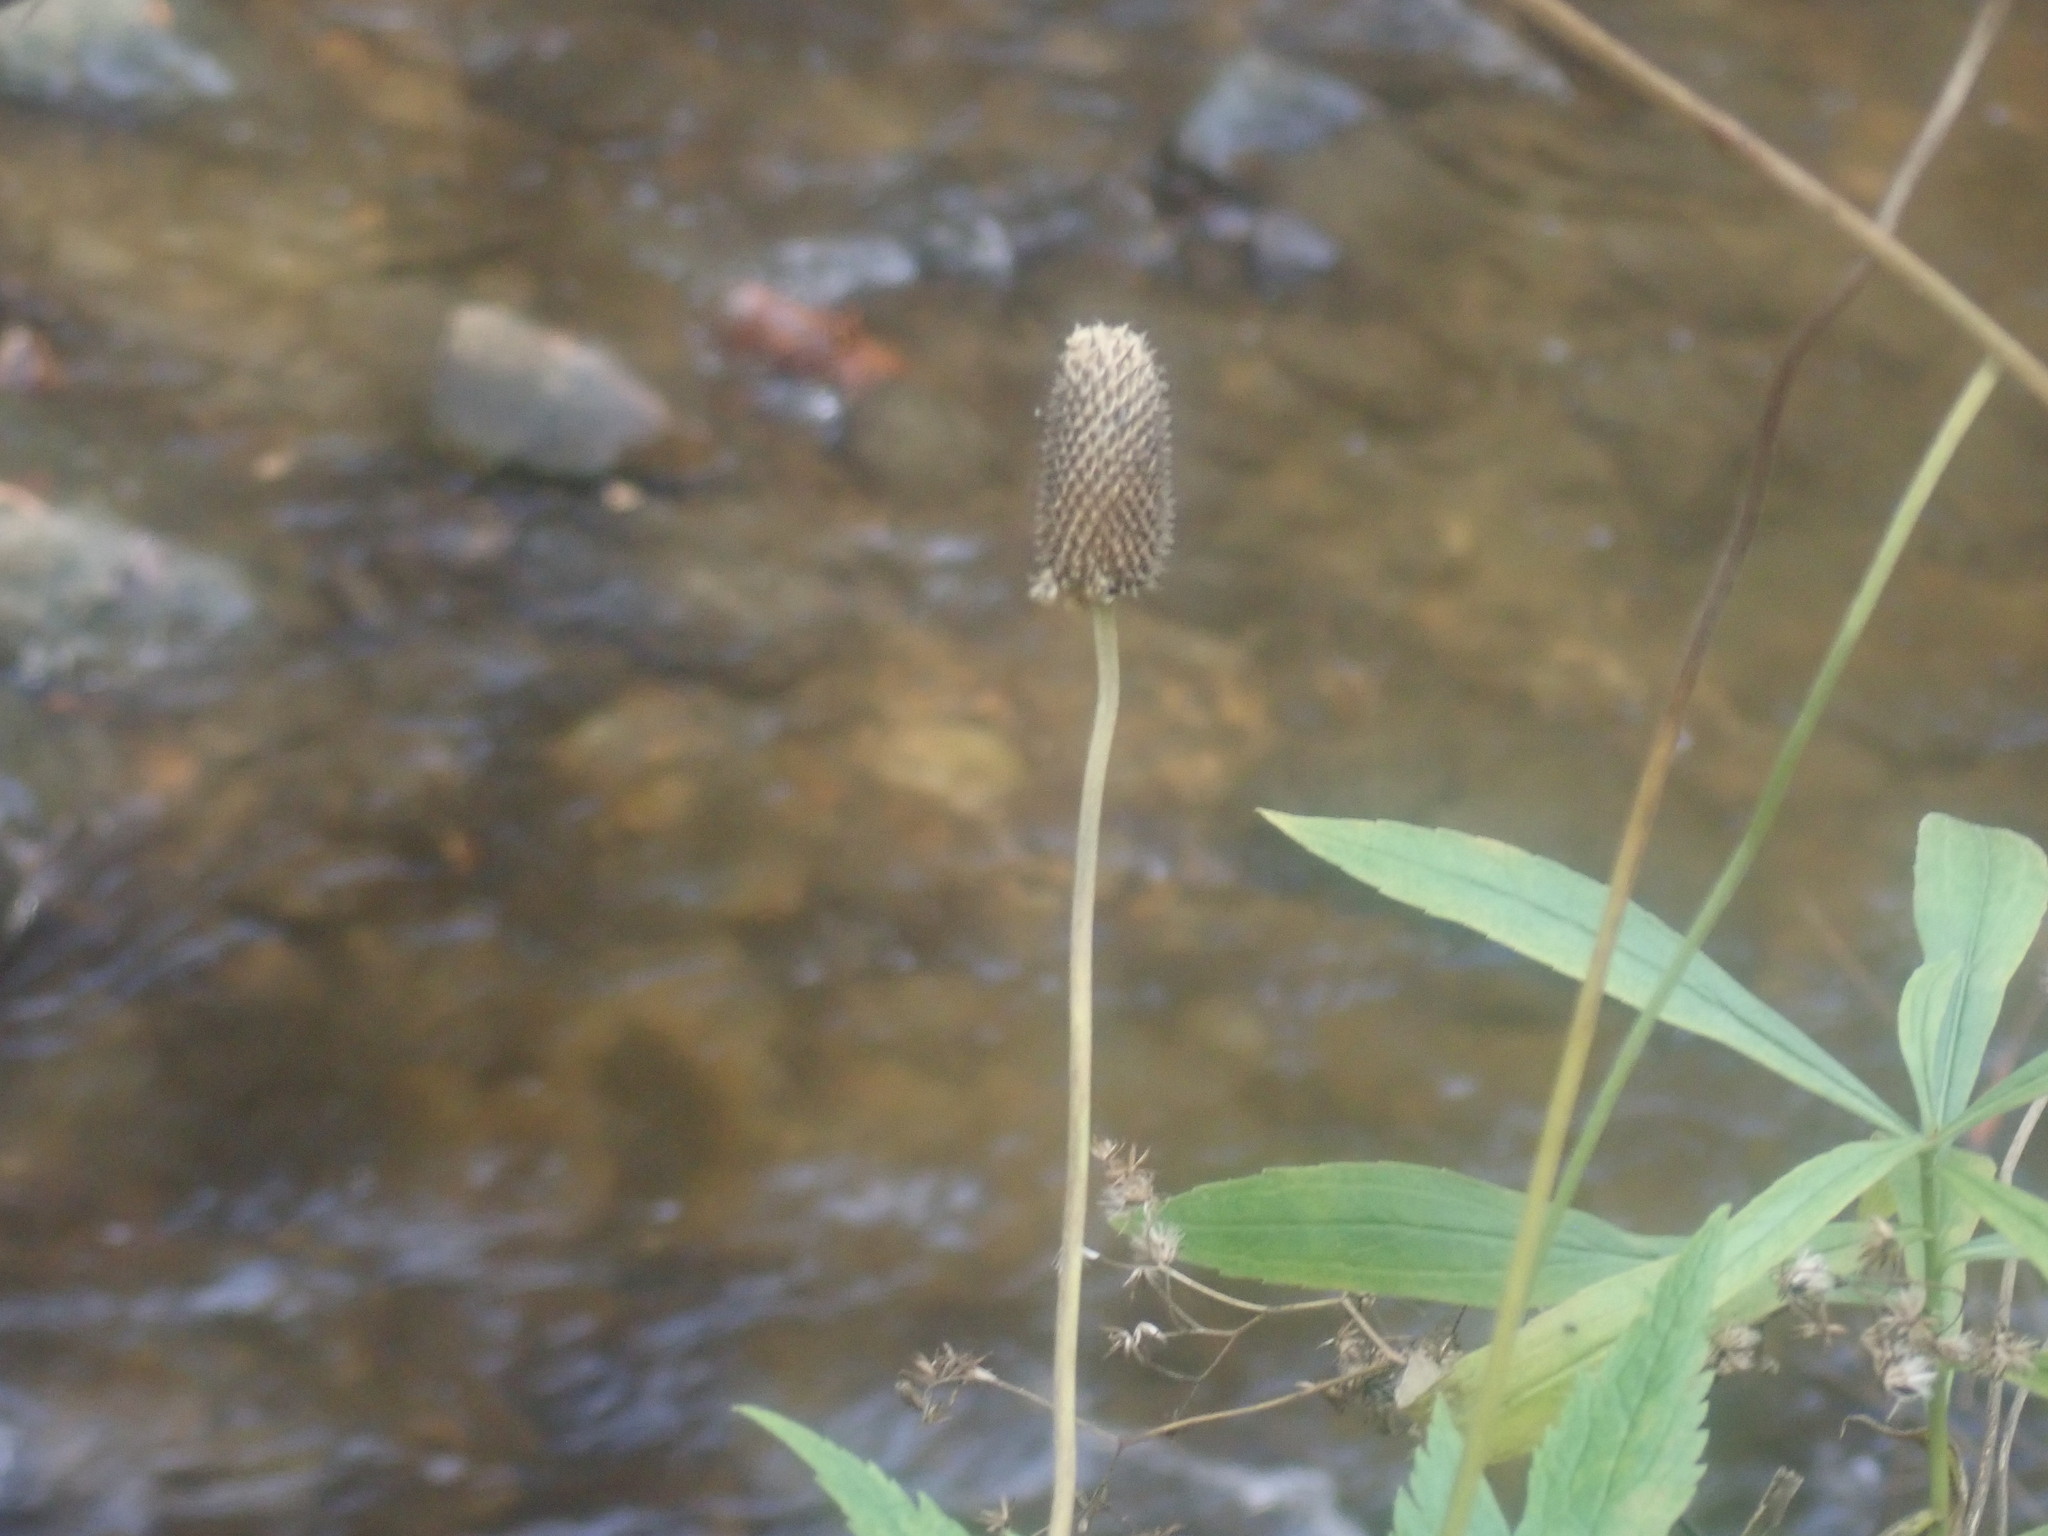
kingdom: Plantae
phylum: Tracheophyta
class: Magnoliopsida
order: Ranunculales
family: Ranunculaceae
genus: Anemone
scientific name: Anemone virginiana
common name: Tall anemone
